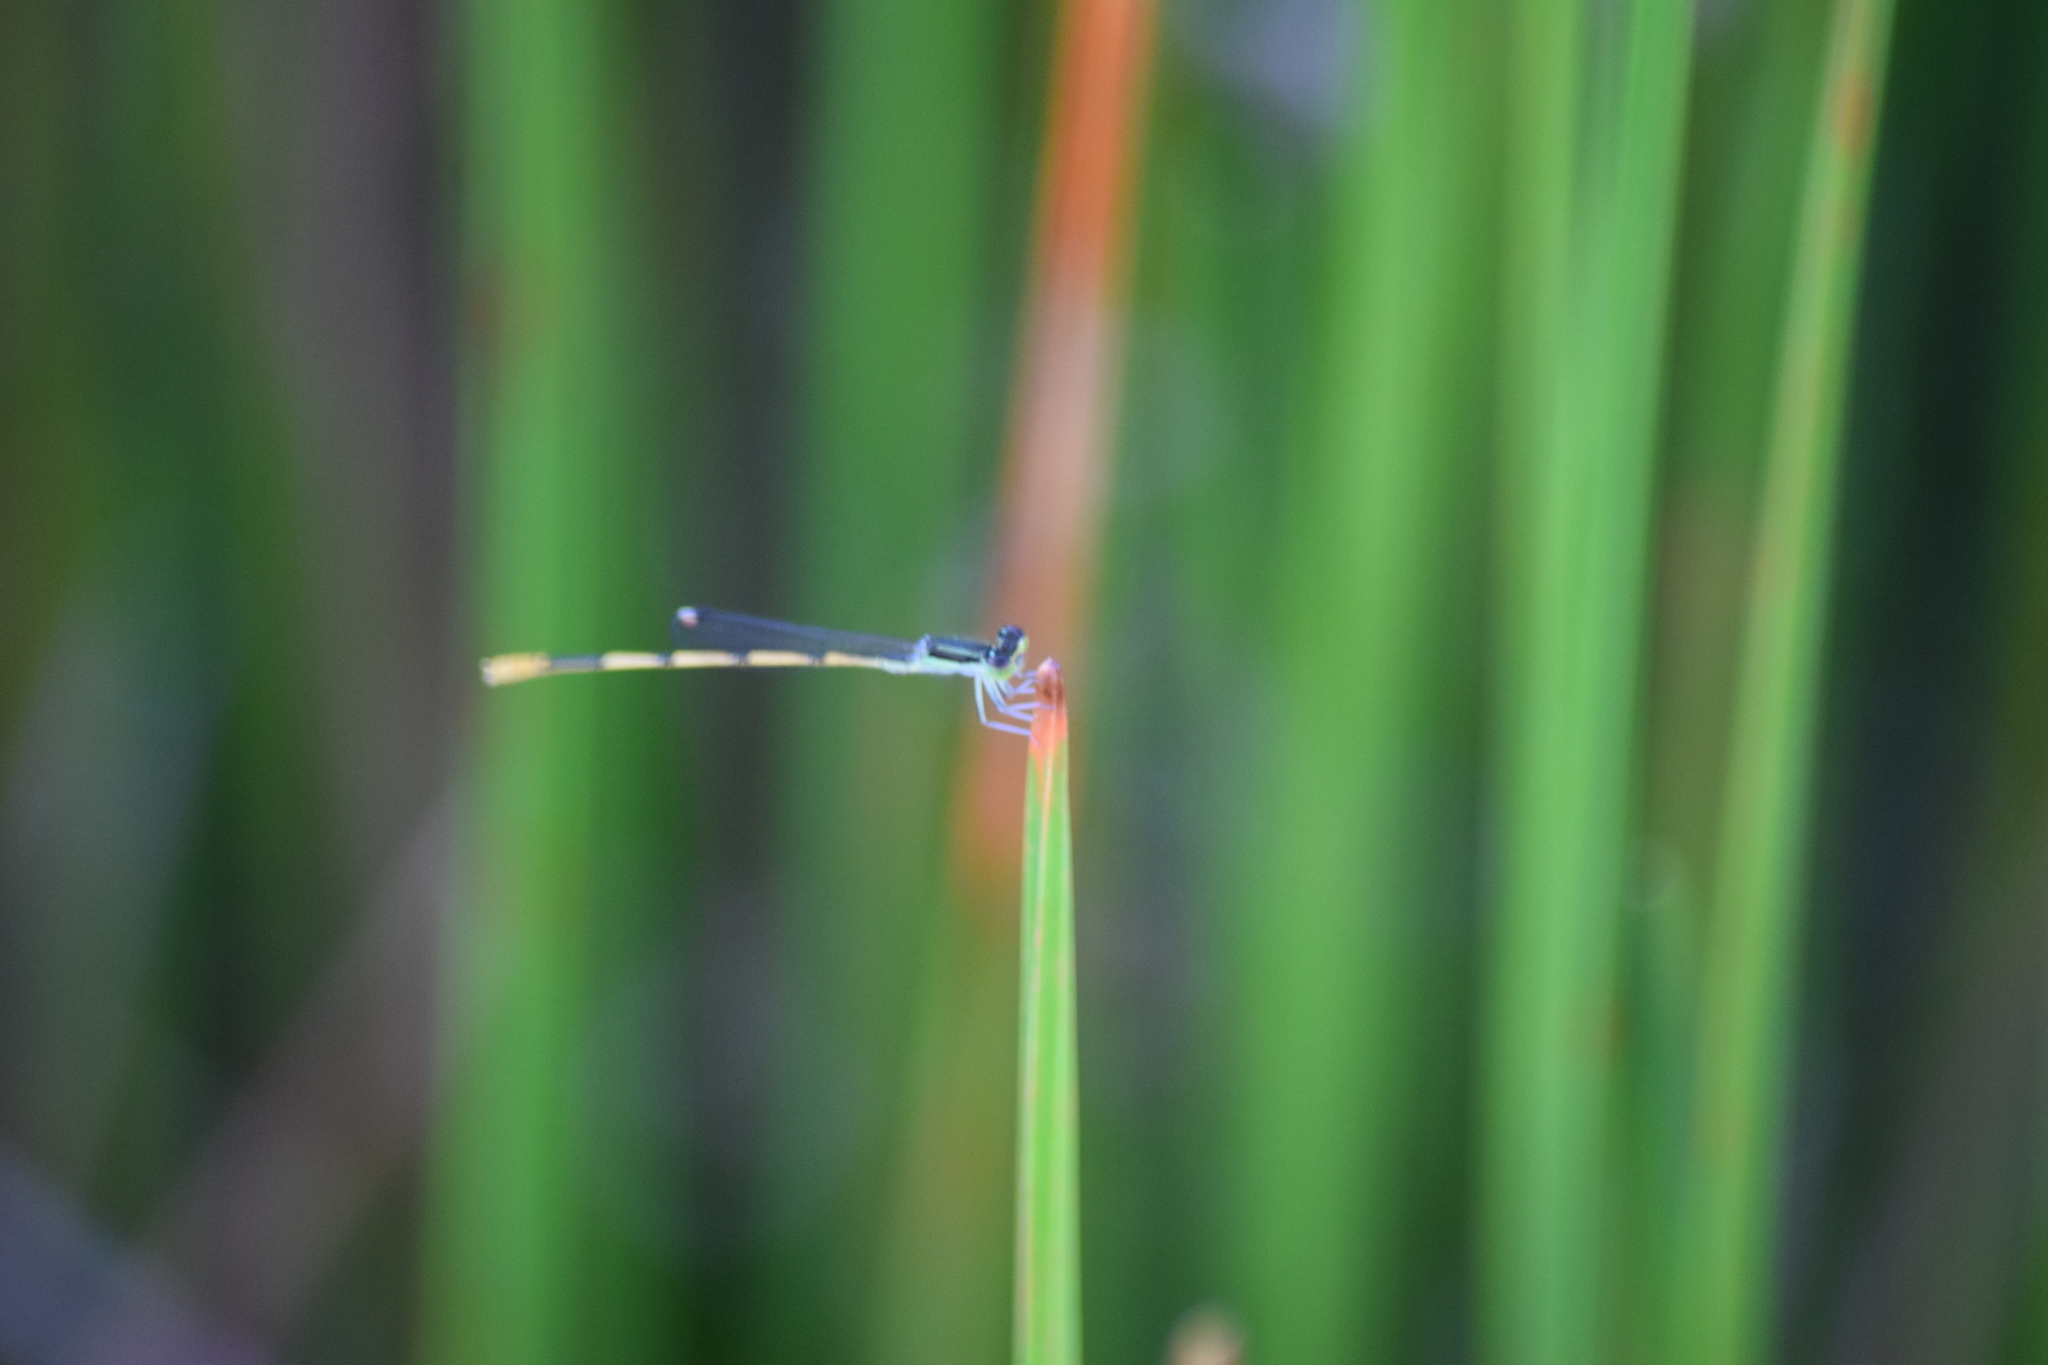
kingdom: Animalia
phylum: Arthropoda
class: Insecta
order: Odonata
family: Coenagrionidae
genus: Ischnura
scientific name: Ischnura hastata
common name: Citrine forktail
